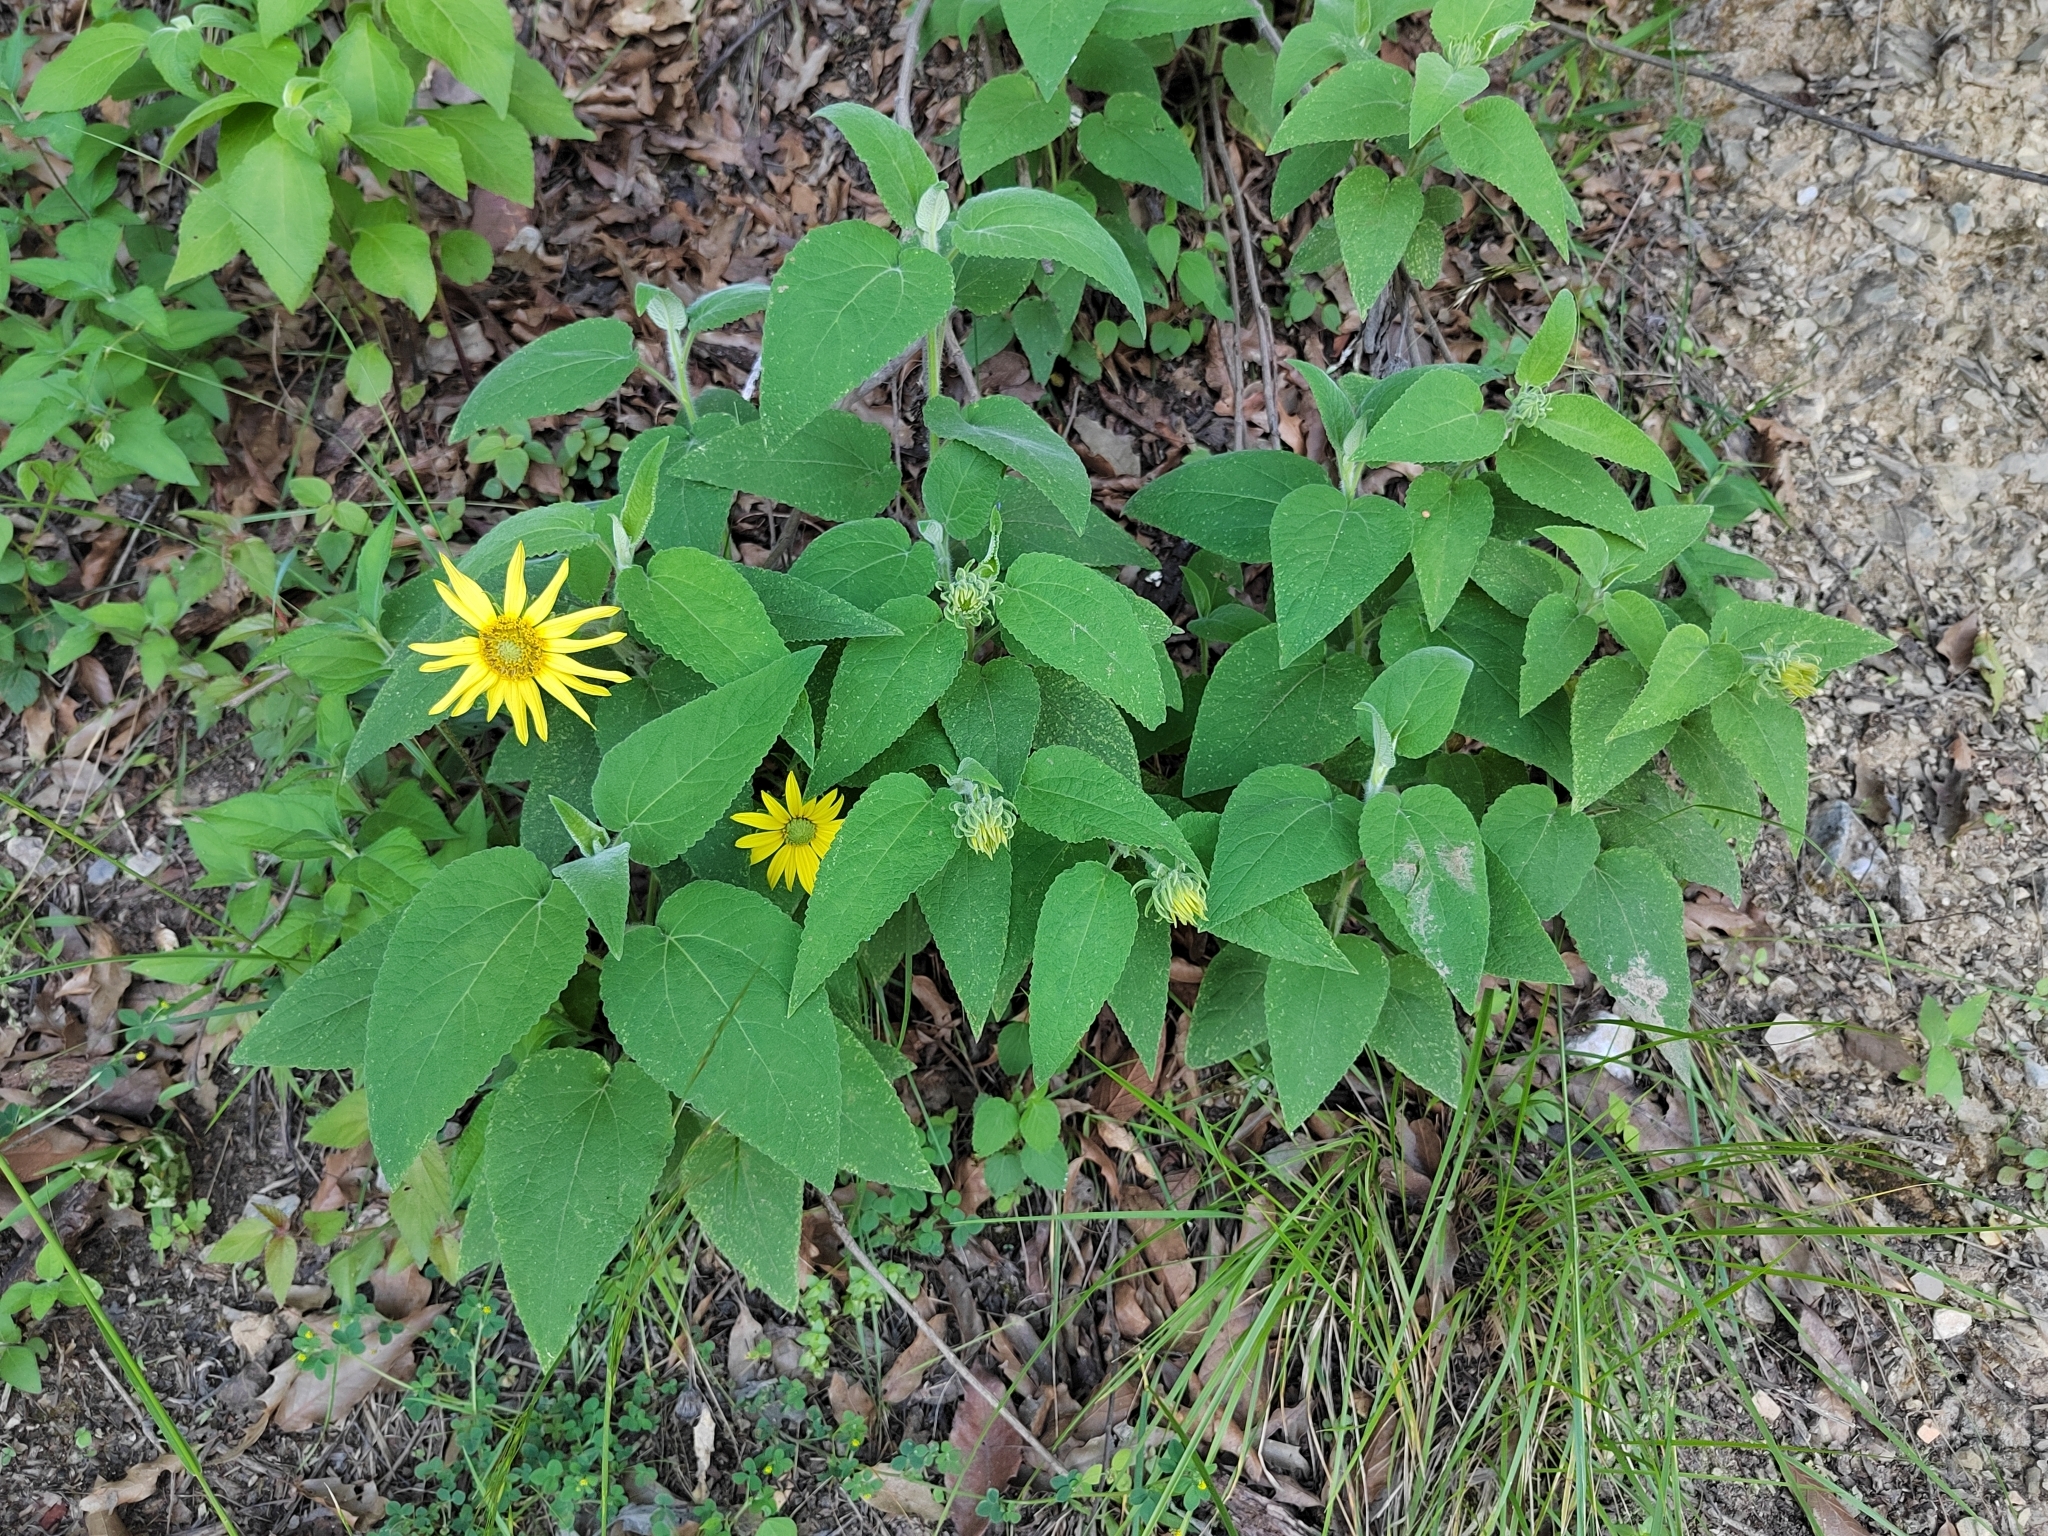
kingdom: Plantae
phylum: Tracheophyta
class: Magnoliopsida
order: Asterales
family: Asteraceae
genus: Vigethia
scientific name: Vigethia mexicana
